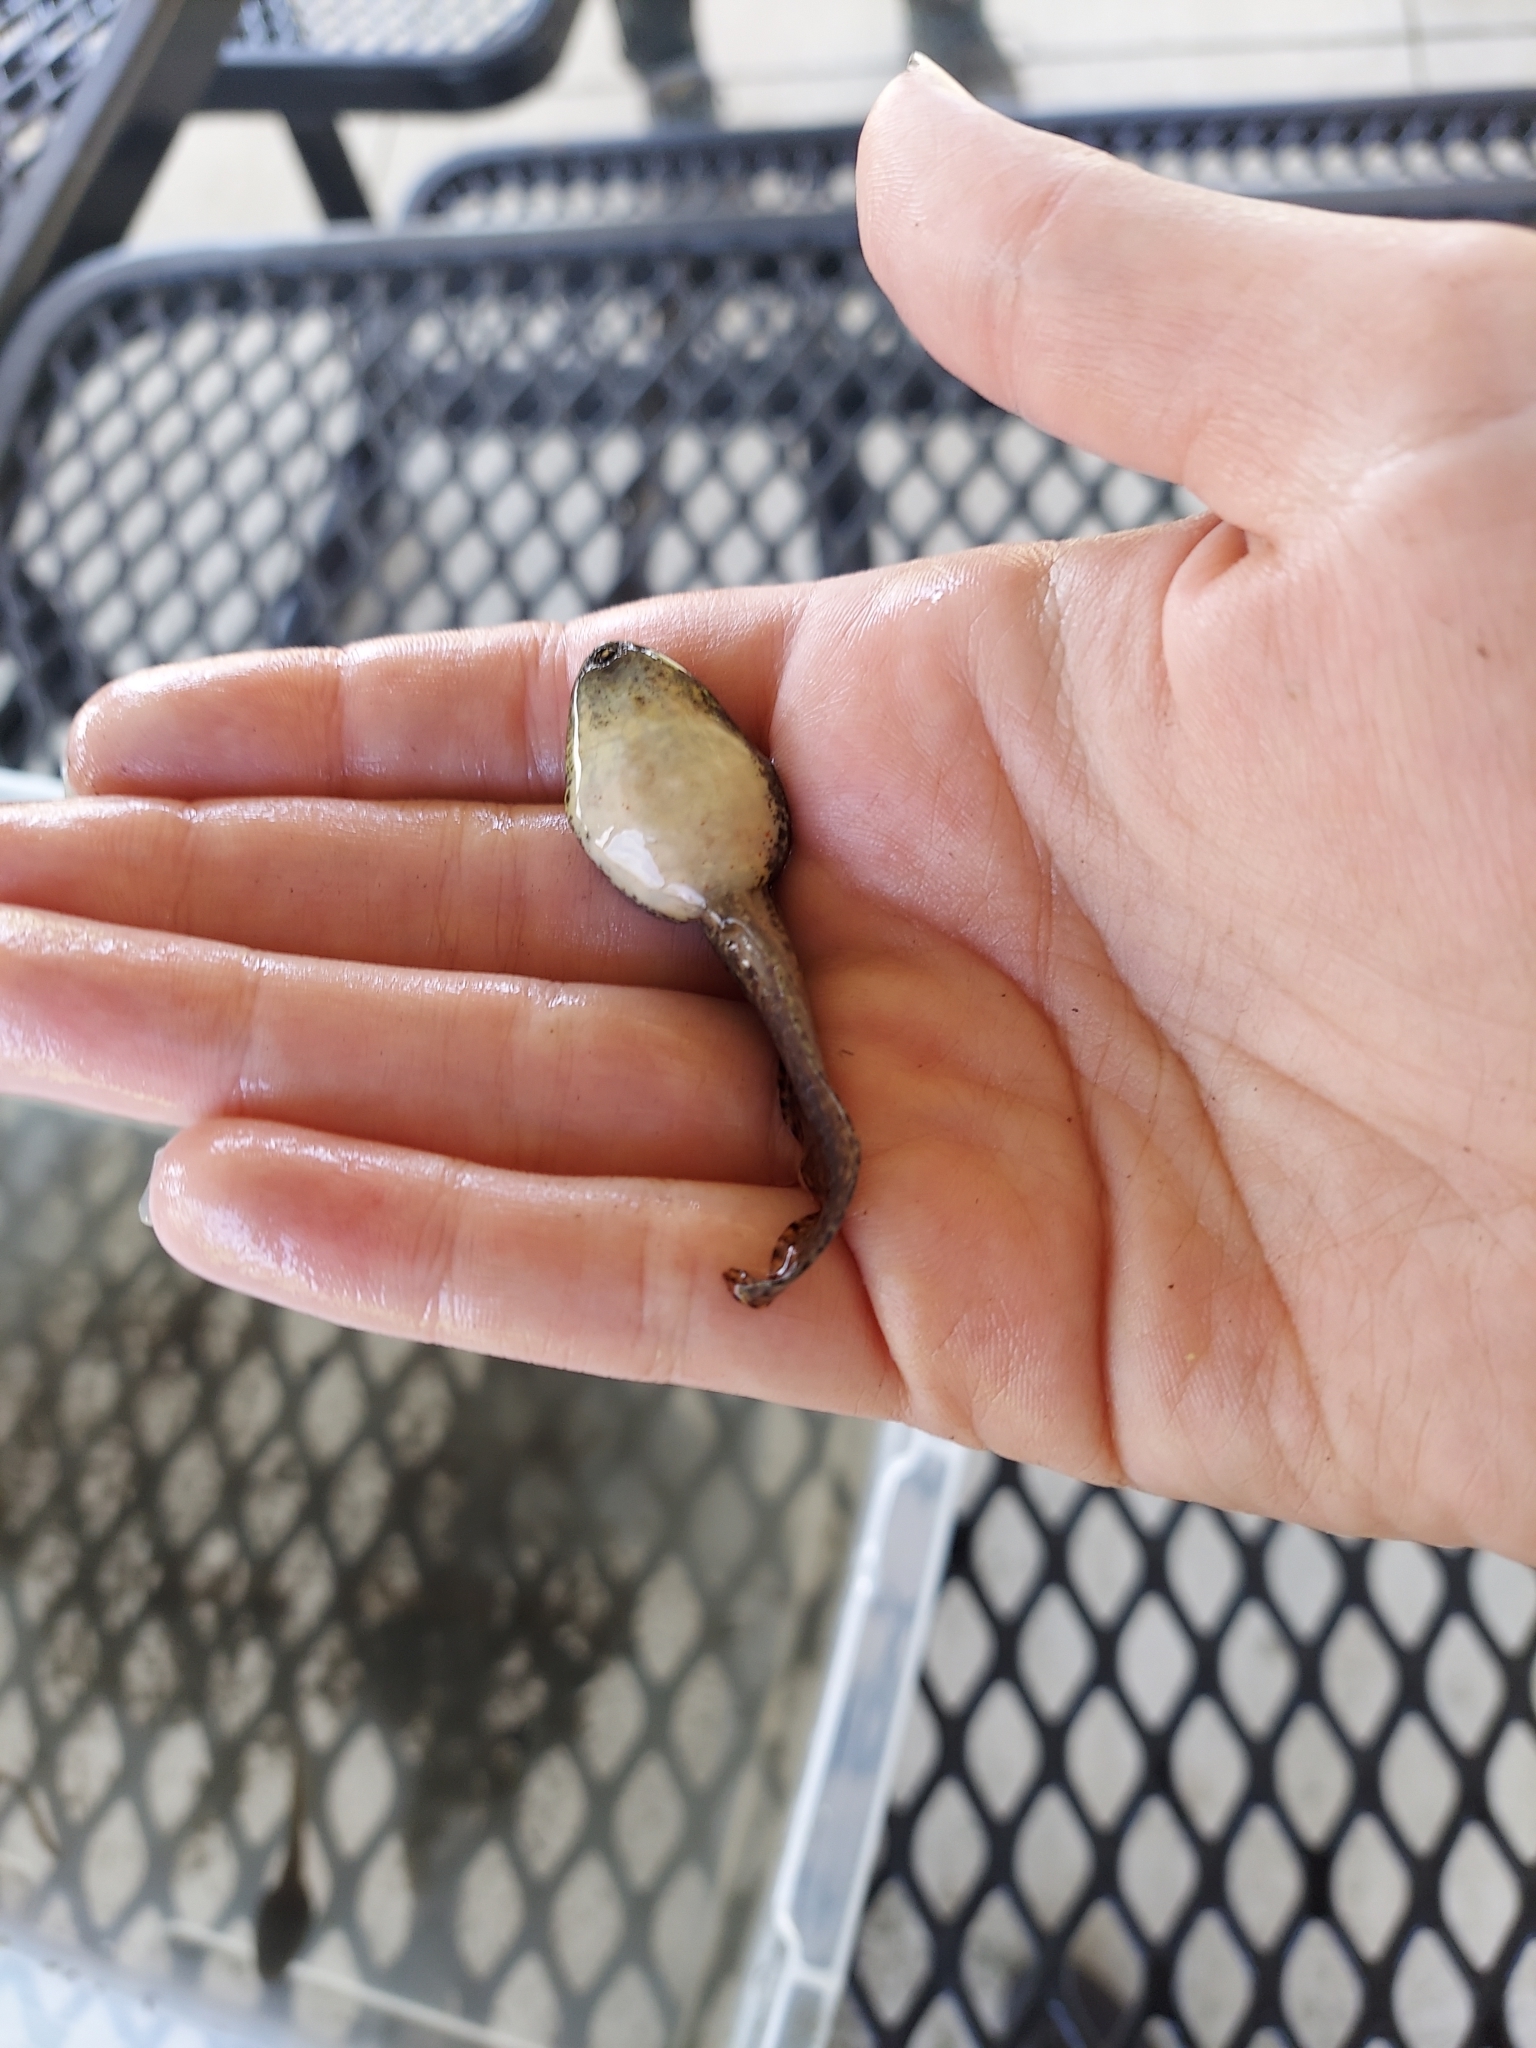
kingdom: Animalia
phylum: Chordata
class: Amphibia
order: Anura
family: Ranidae
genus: Lithobates
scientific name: Lithobates clamitans
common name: Green frog
